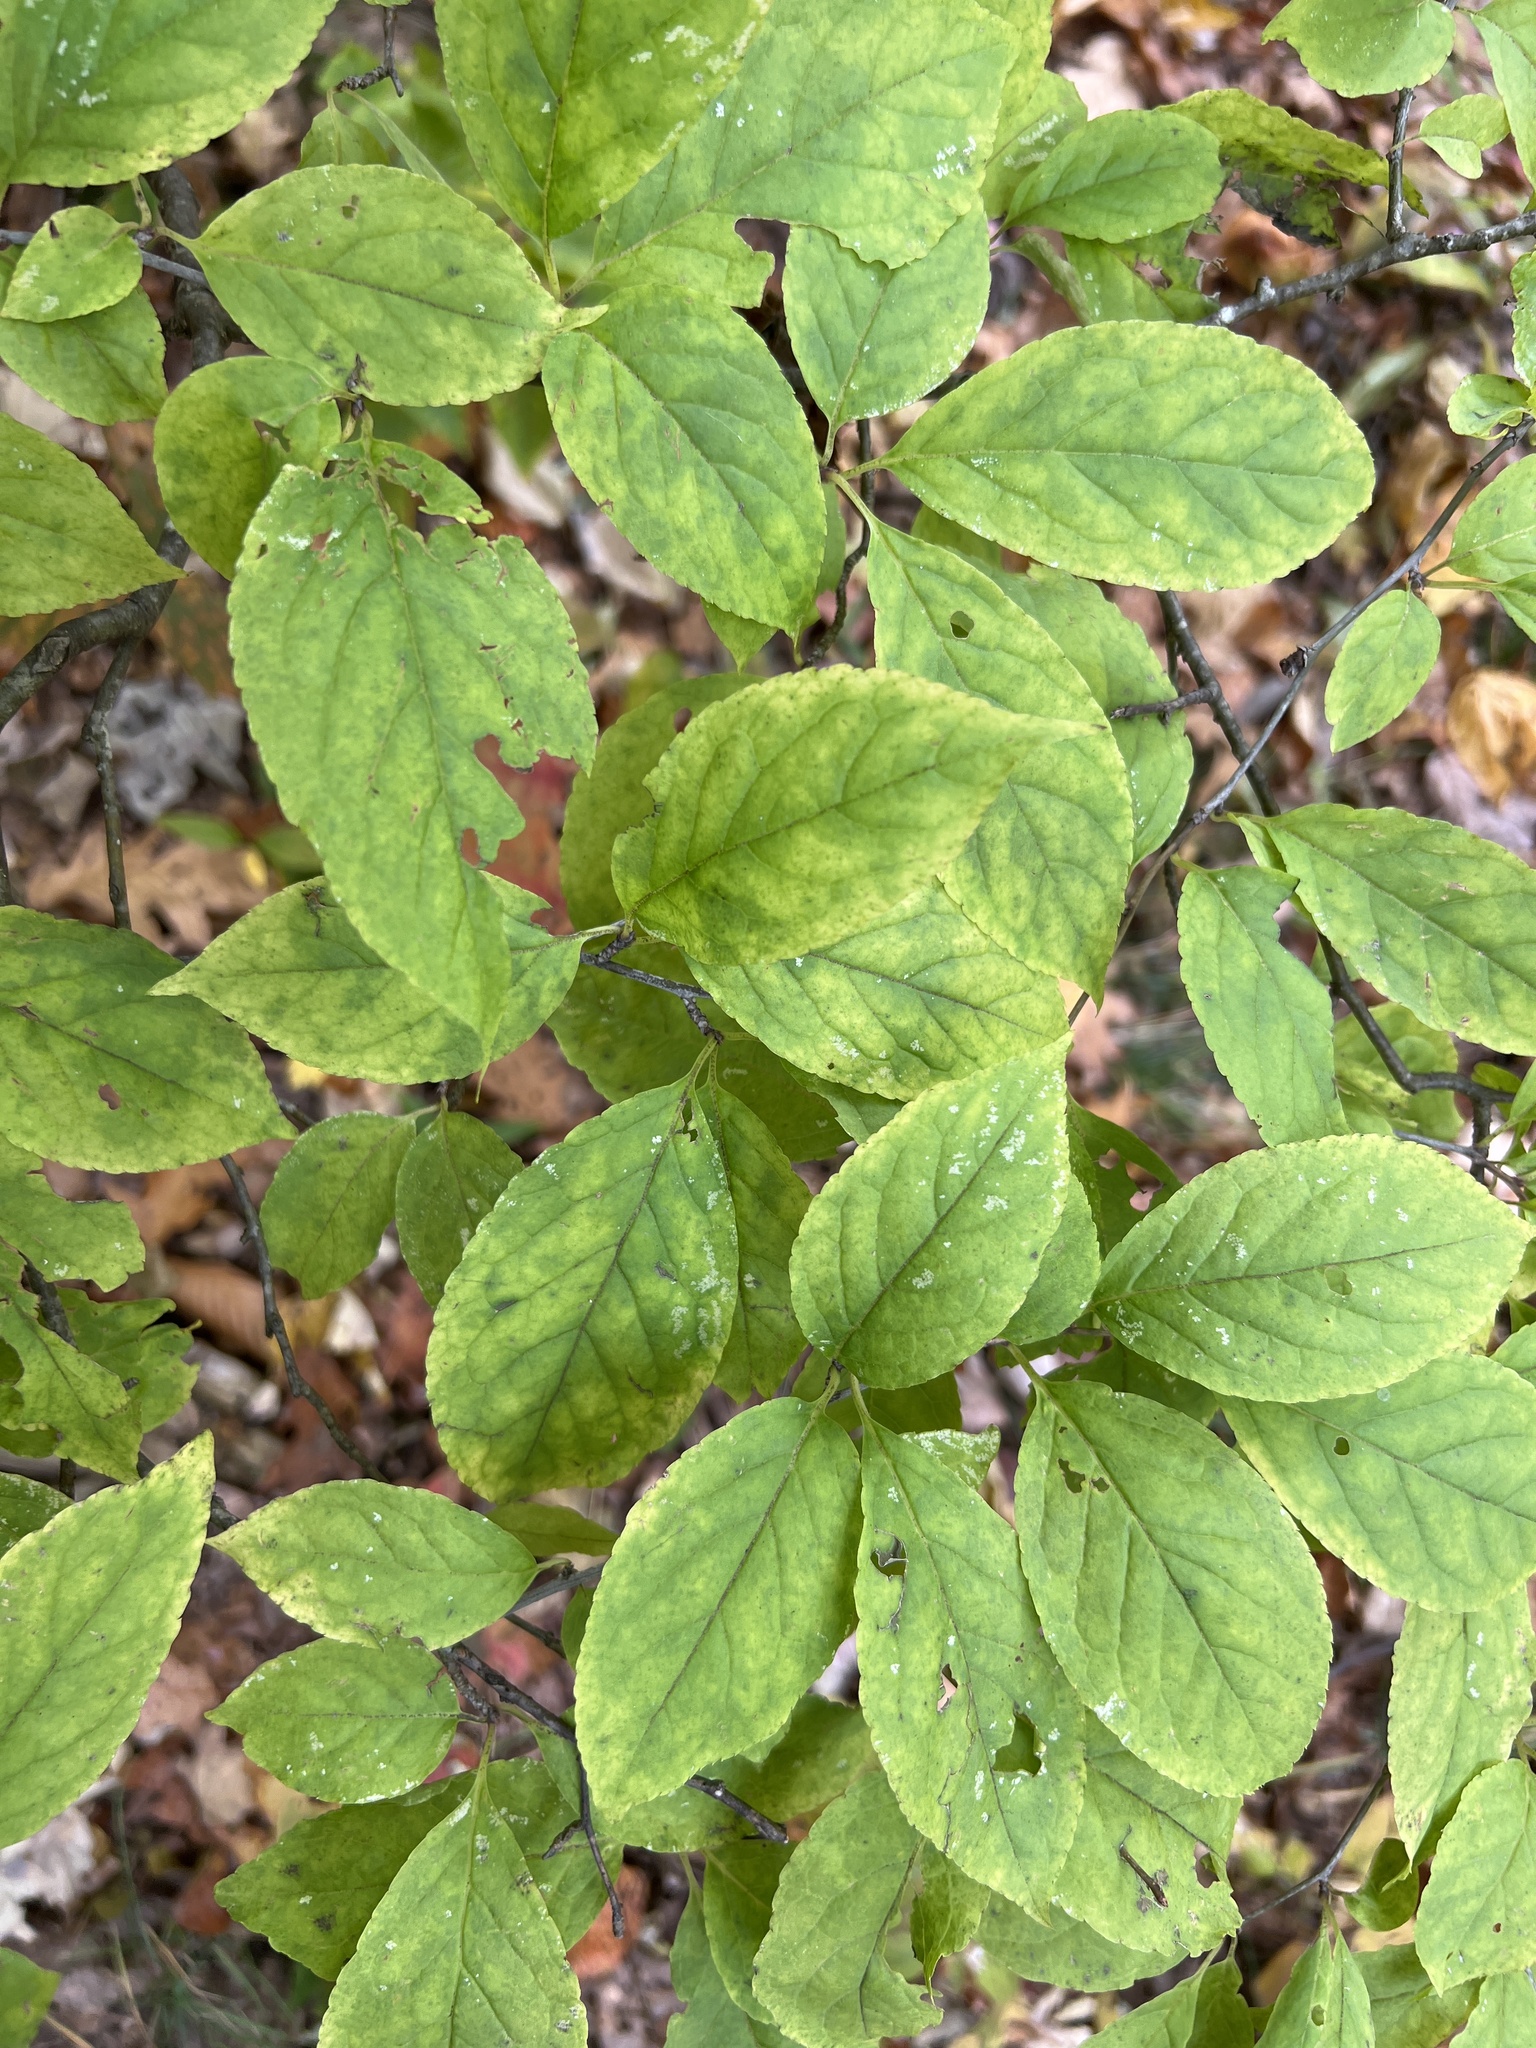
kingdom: Plantae
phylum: Tracheophyta
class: Magnoliopsida
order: Aquifoliales
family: Aquifoliaceae
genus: Ilex
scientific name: Ilex montana
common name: Mountain winterberry
